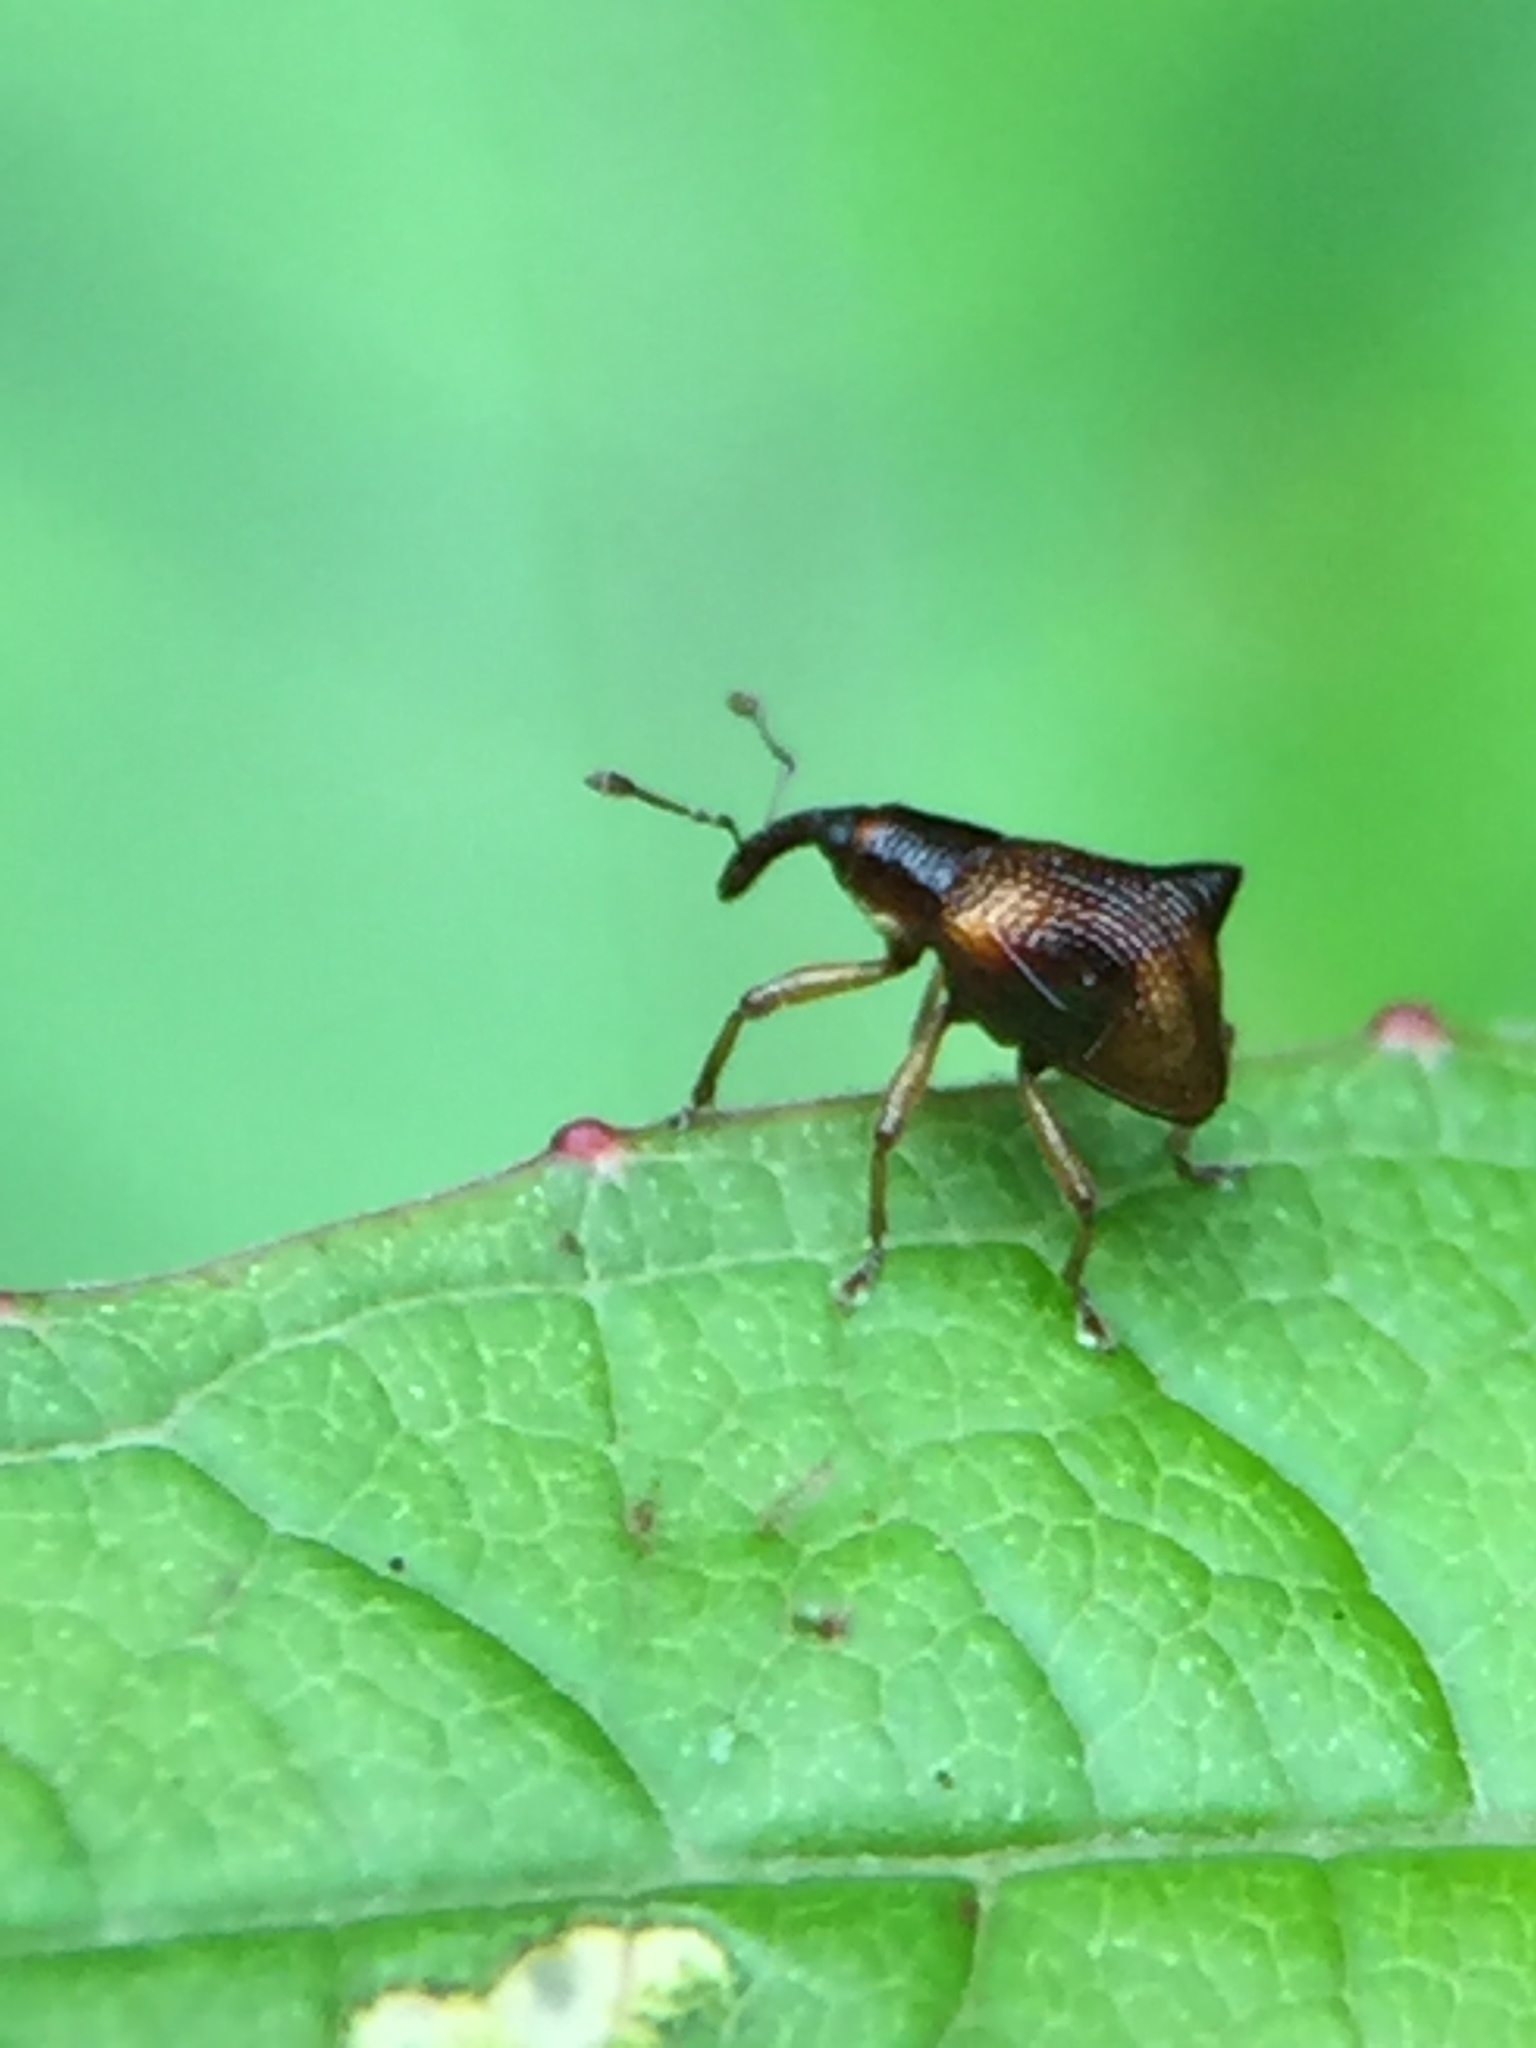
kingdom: Animalia
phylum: Arthropoda
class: Insecta
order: Coleoptera
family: Curculionidae
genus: Oropterus
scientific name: Oropterus coniger
